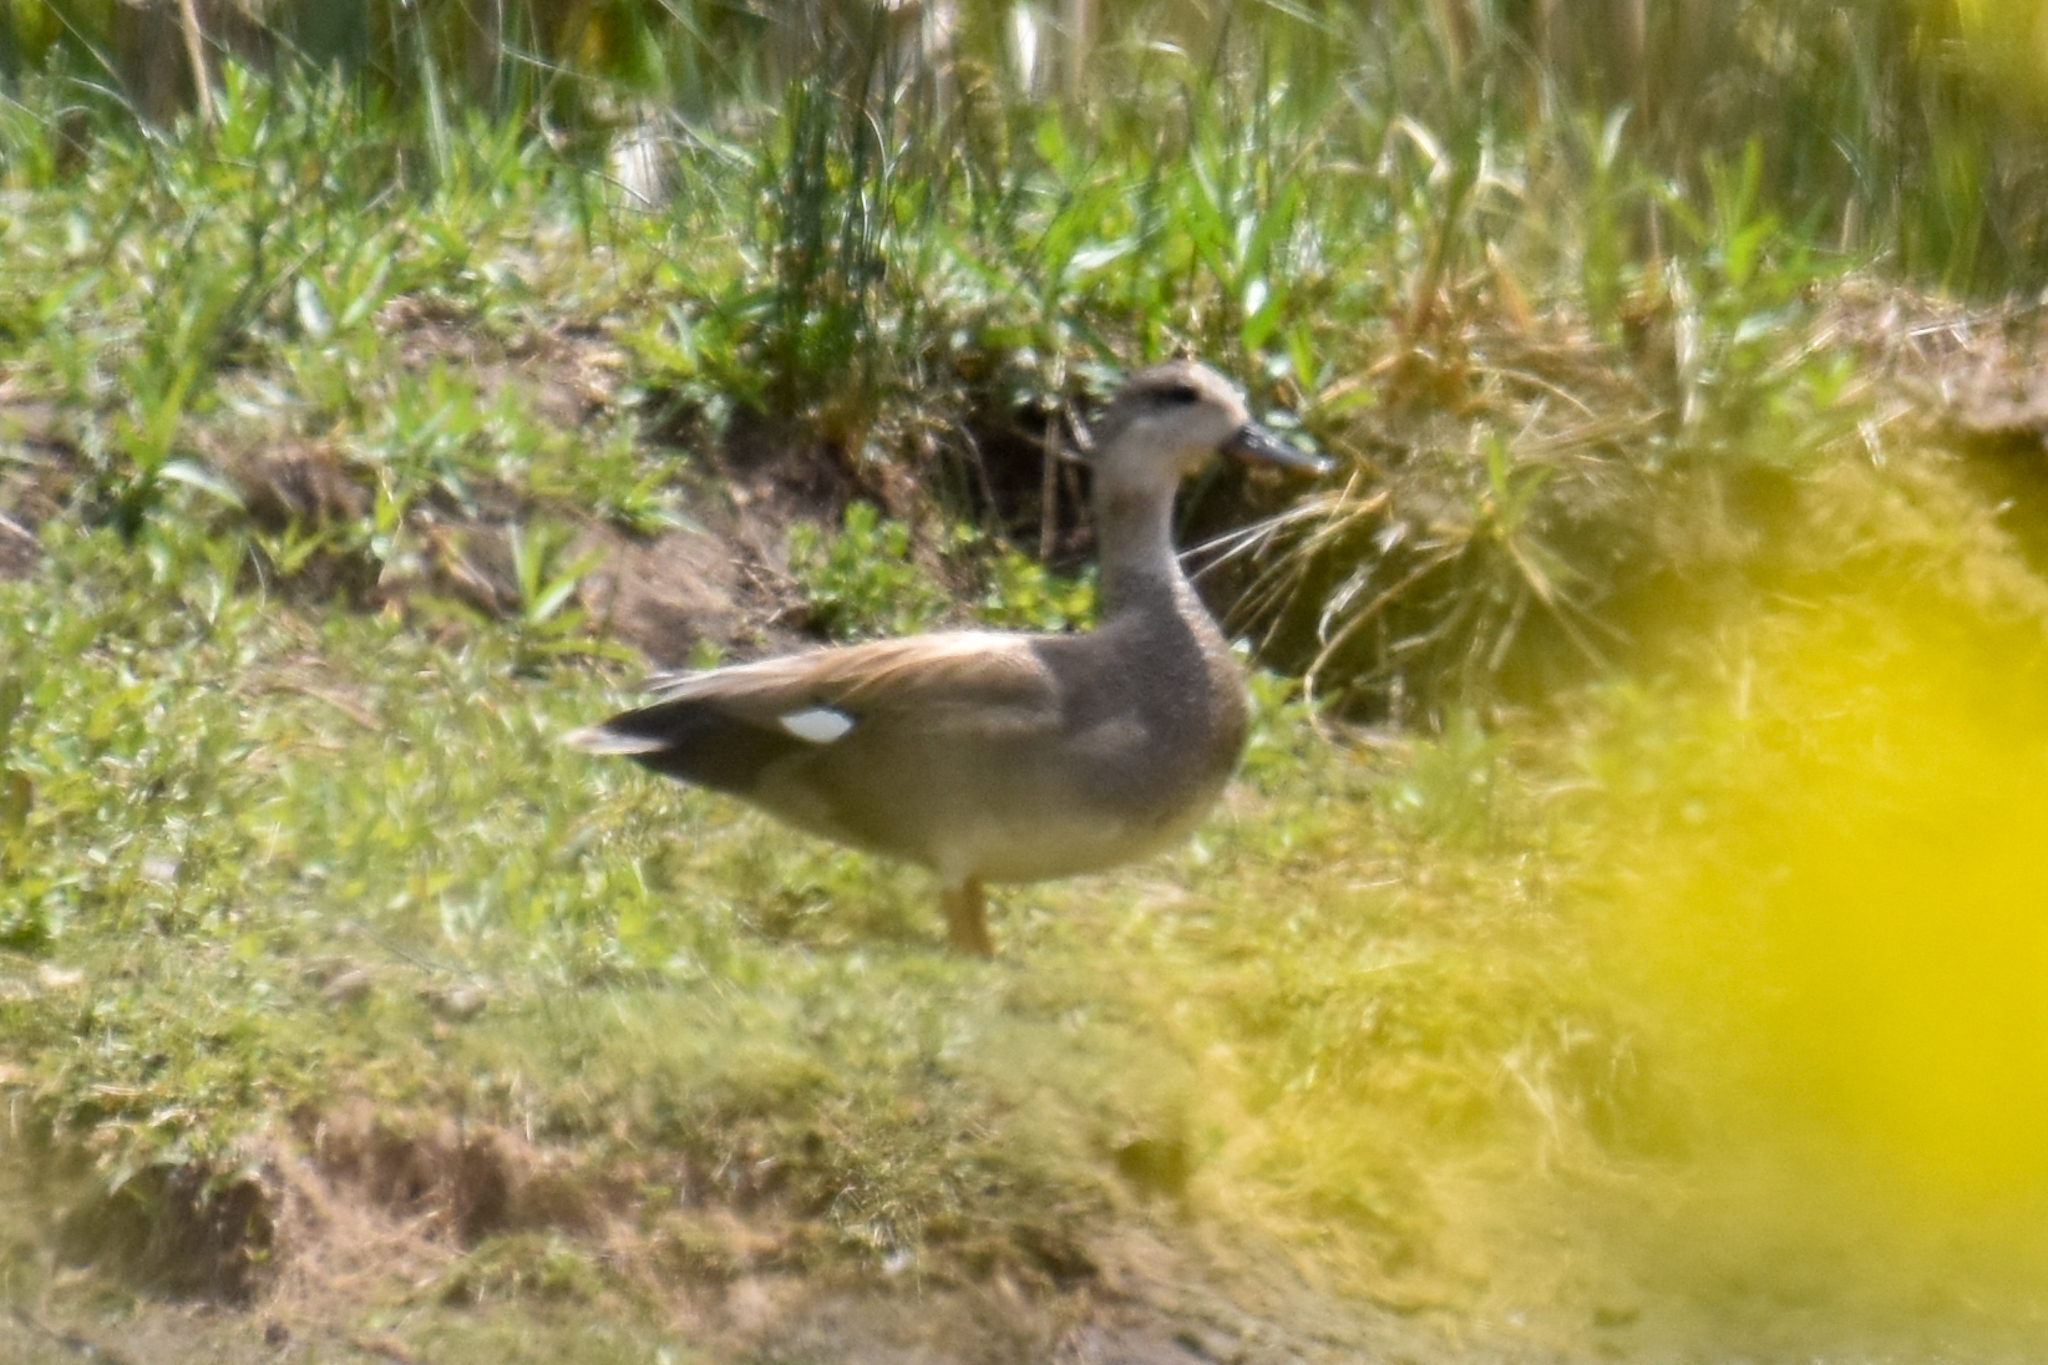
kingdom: Animalia
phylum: Chordata
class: Aves
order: Anseriformes
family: Anatidae
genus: Mareca
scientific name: Mareca strepera
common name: Gadwall
